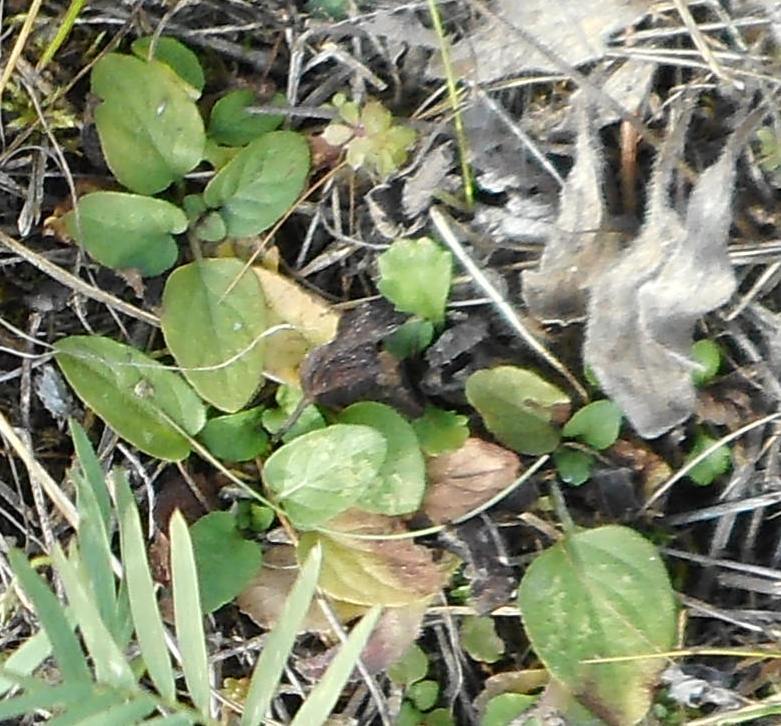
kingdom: Plantae
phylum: Tracheophyta
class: Magnoliopsida
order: Lamiales
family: Lamiaceae
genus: Prunella
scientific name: Prunella vulgaris
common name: Heal-all
